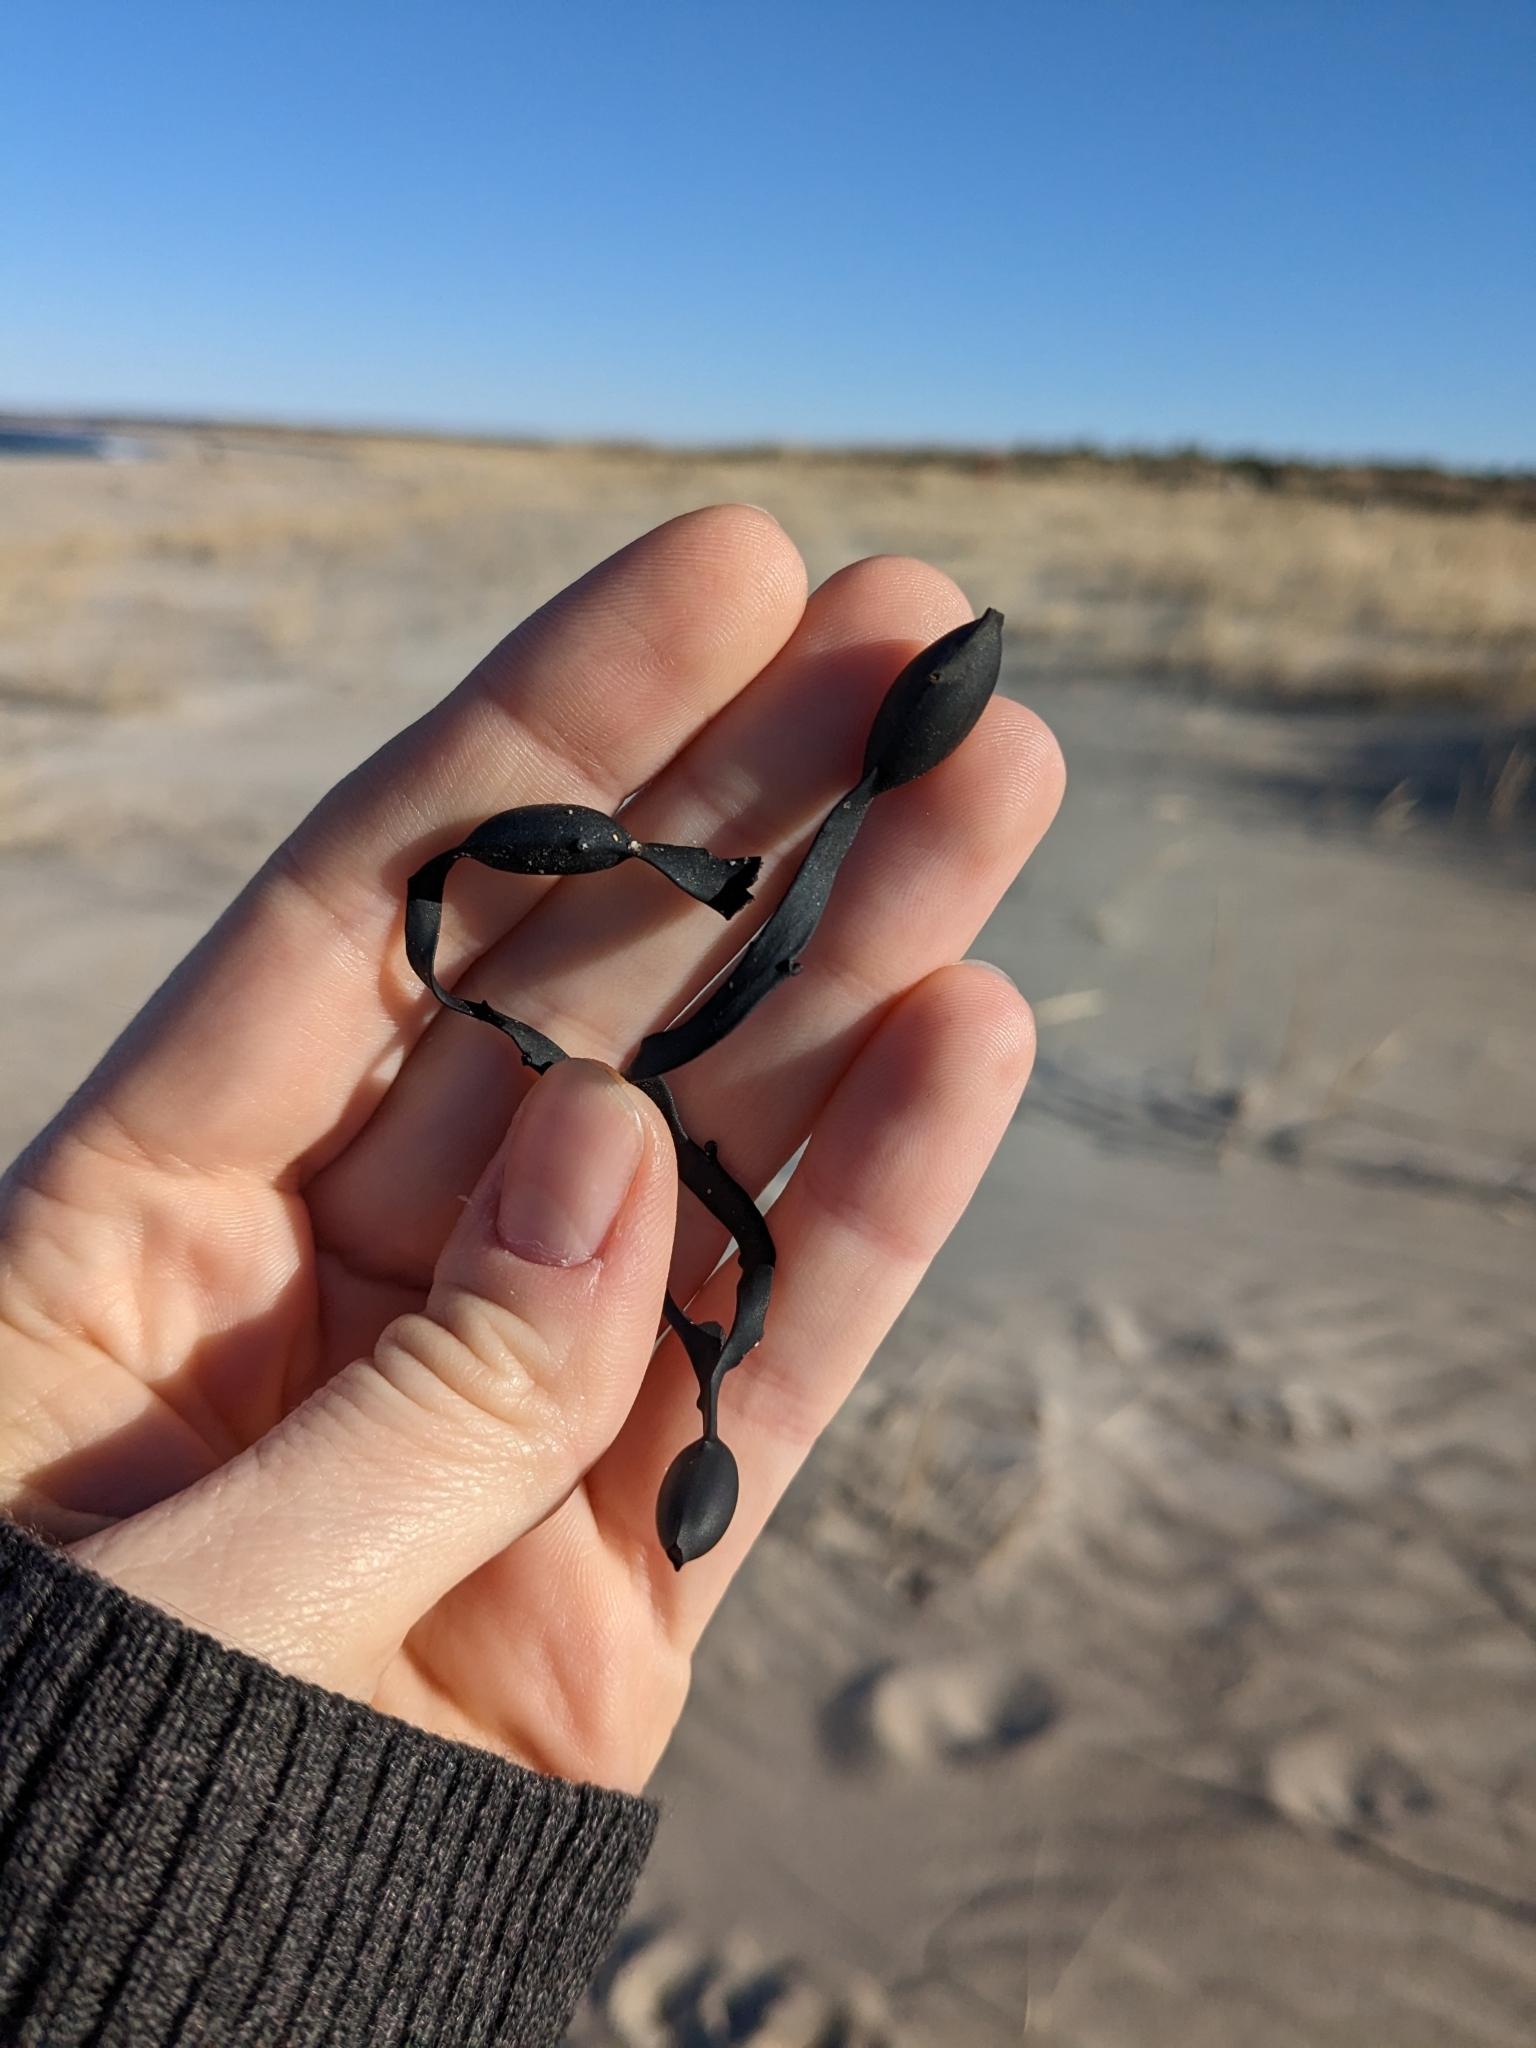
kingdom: Chromista
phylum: Ochrophyta
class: Phaeophyceae
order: Fucales
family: Fucaceae
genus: Ascophyllum
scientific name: Ascophyllum nodosum
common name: Knotted wrack
